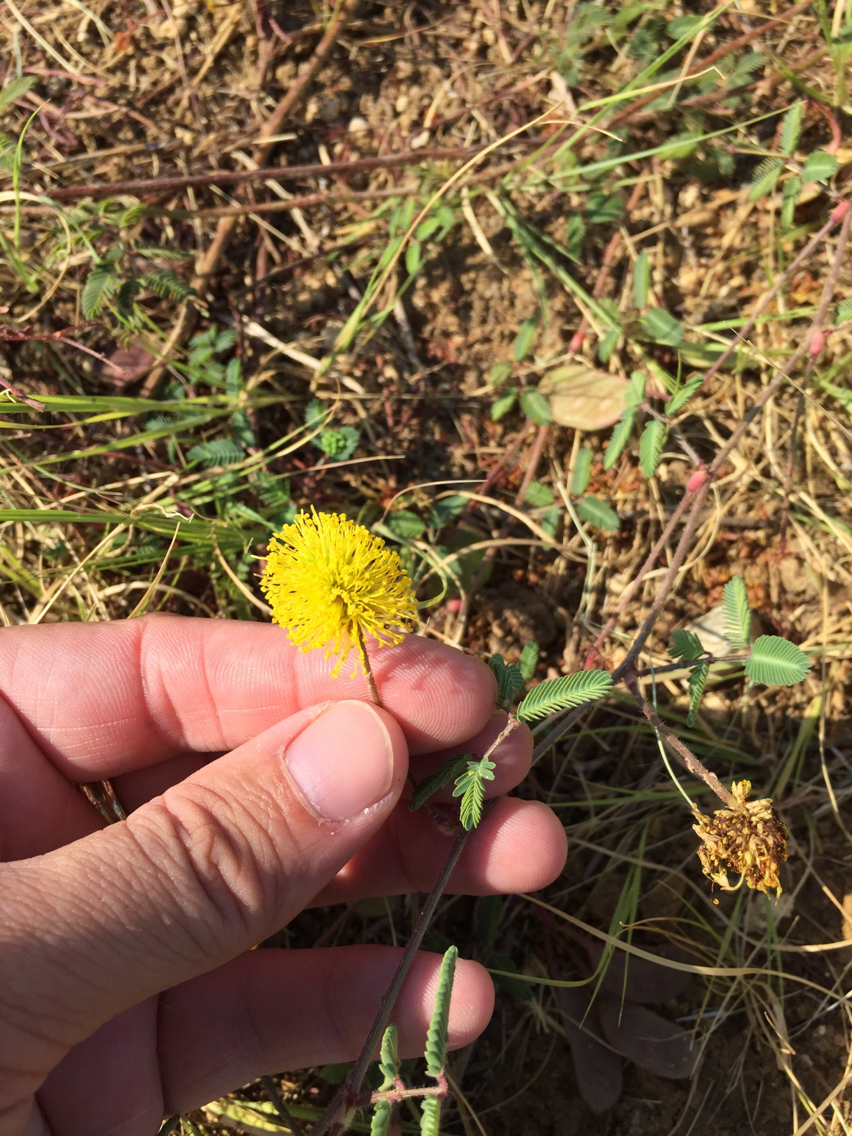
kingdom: Plantae
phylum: Tracheophyta
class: Magnoliopsida
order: Fabales
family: Fabaceae
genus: Neptunia
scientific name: Neptunia lutea
